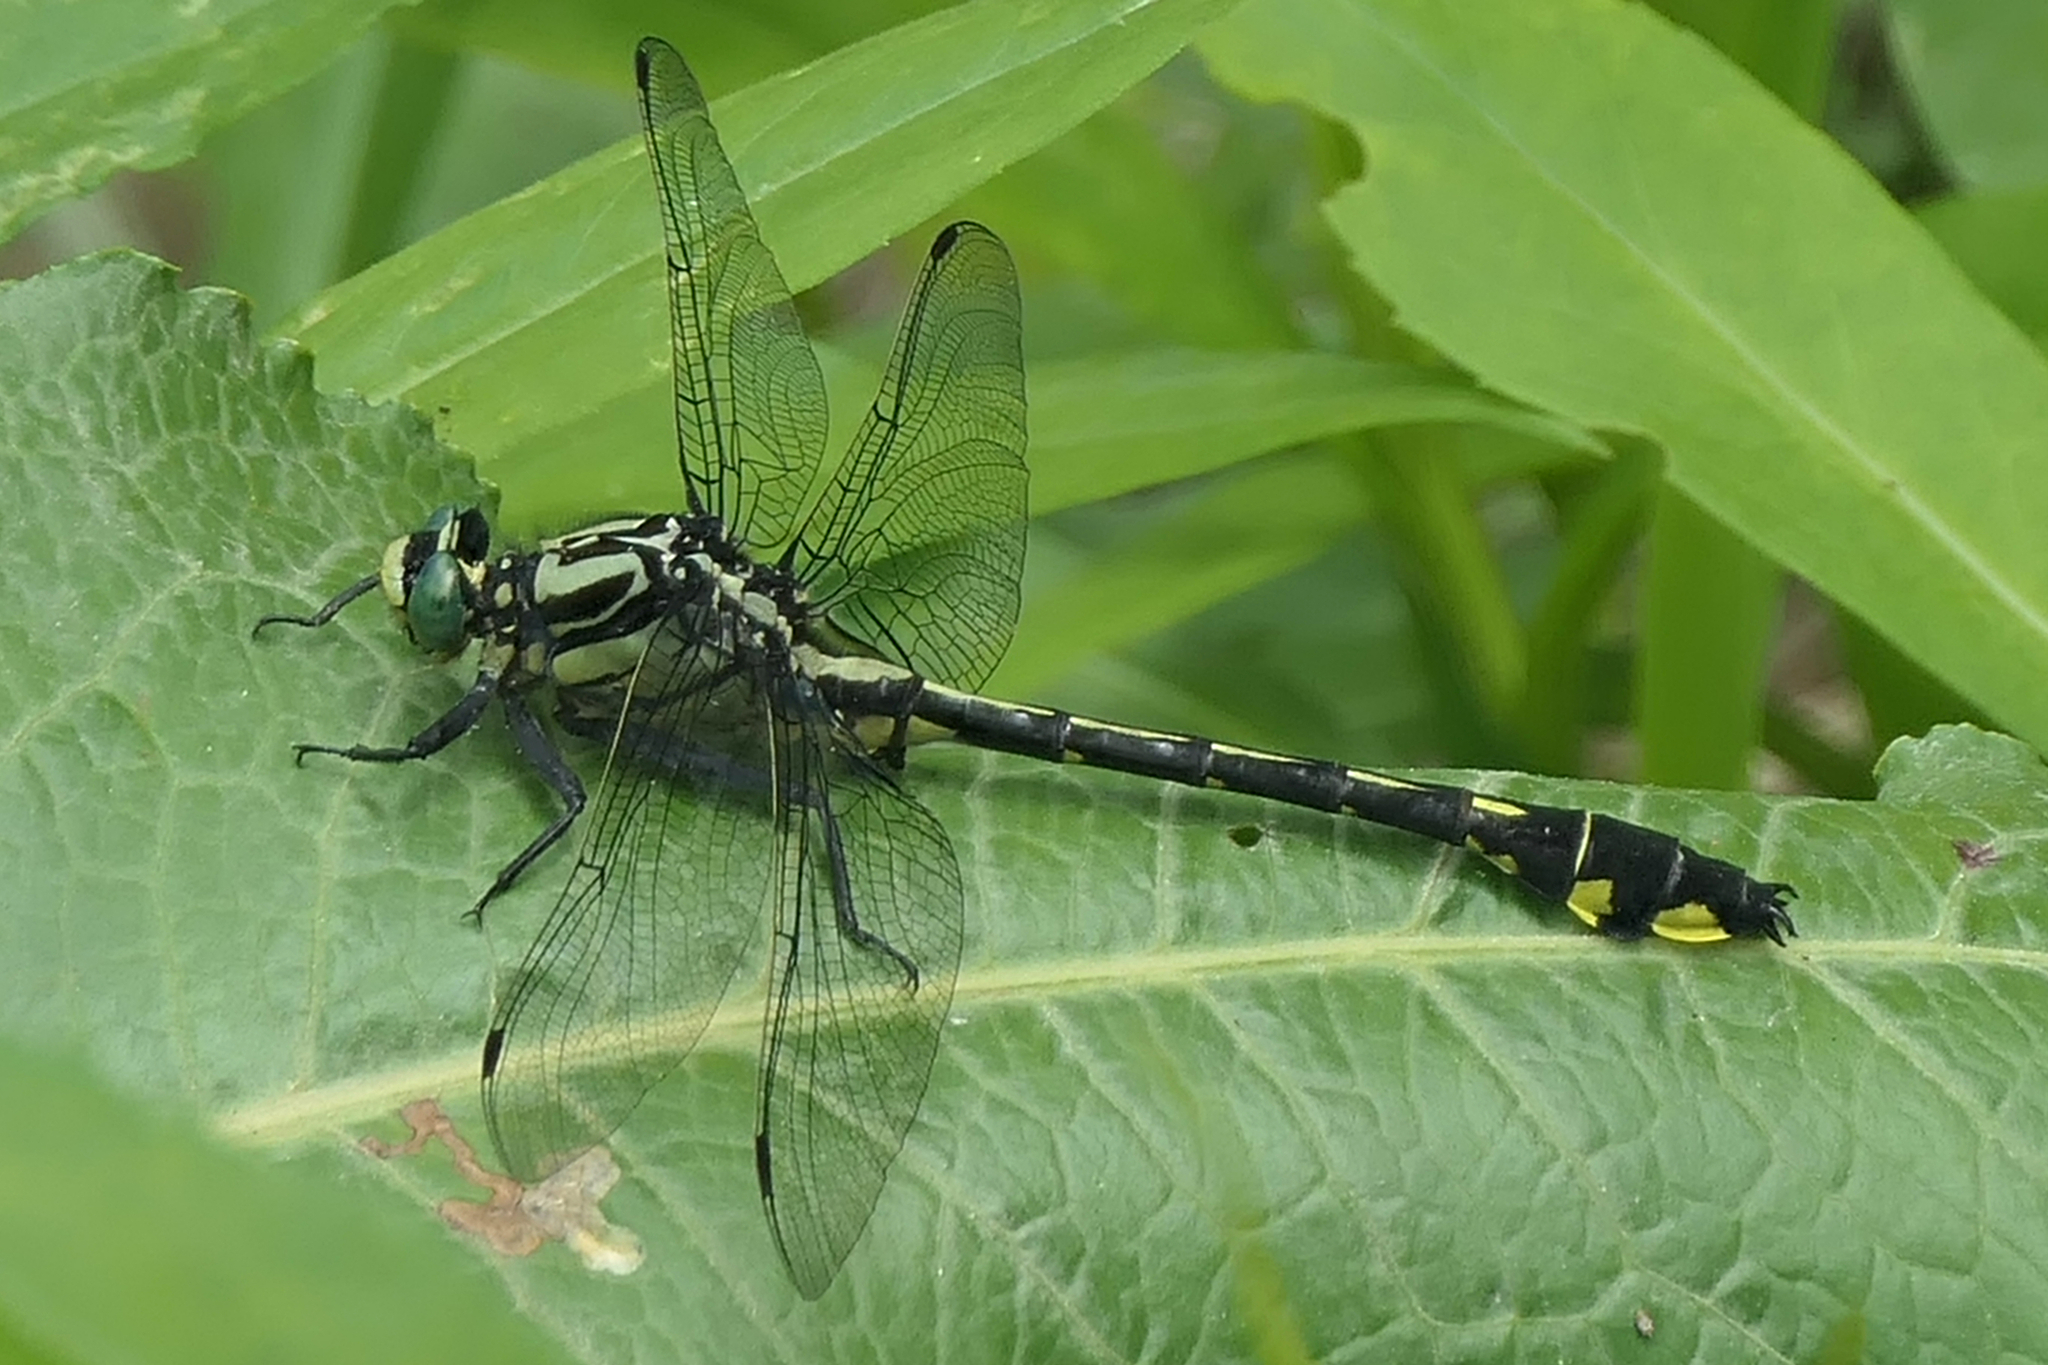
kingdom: Animalia
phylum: Arthropoda
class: Insecta
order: Odonata
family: Gomphidae
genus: Gomphurus
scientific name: Gomphurus lineatifrons
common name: Splendid clubtail
